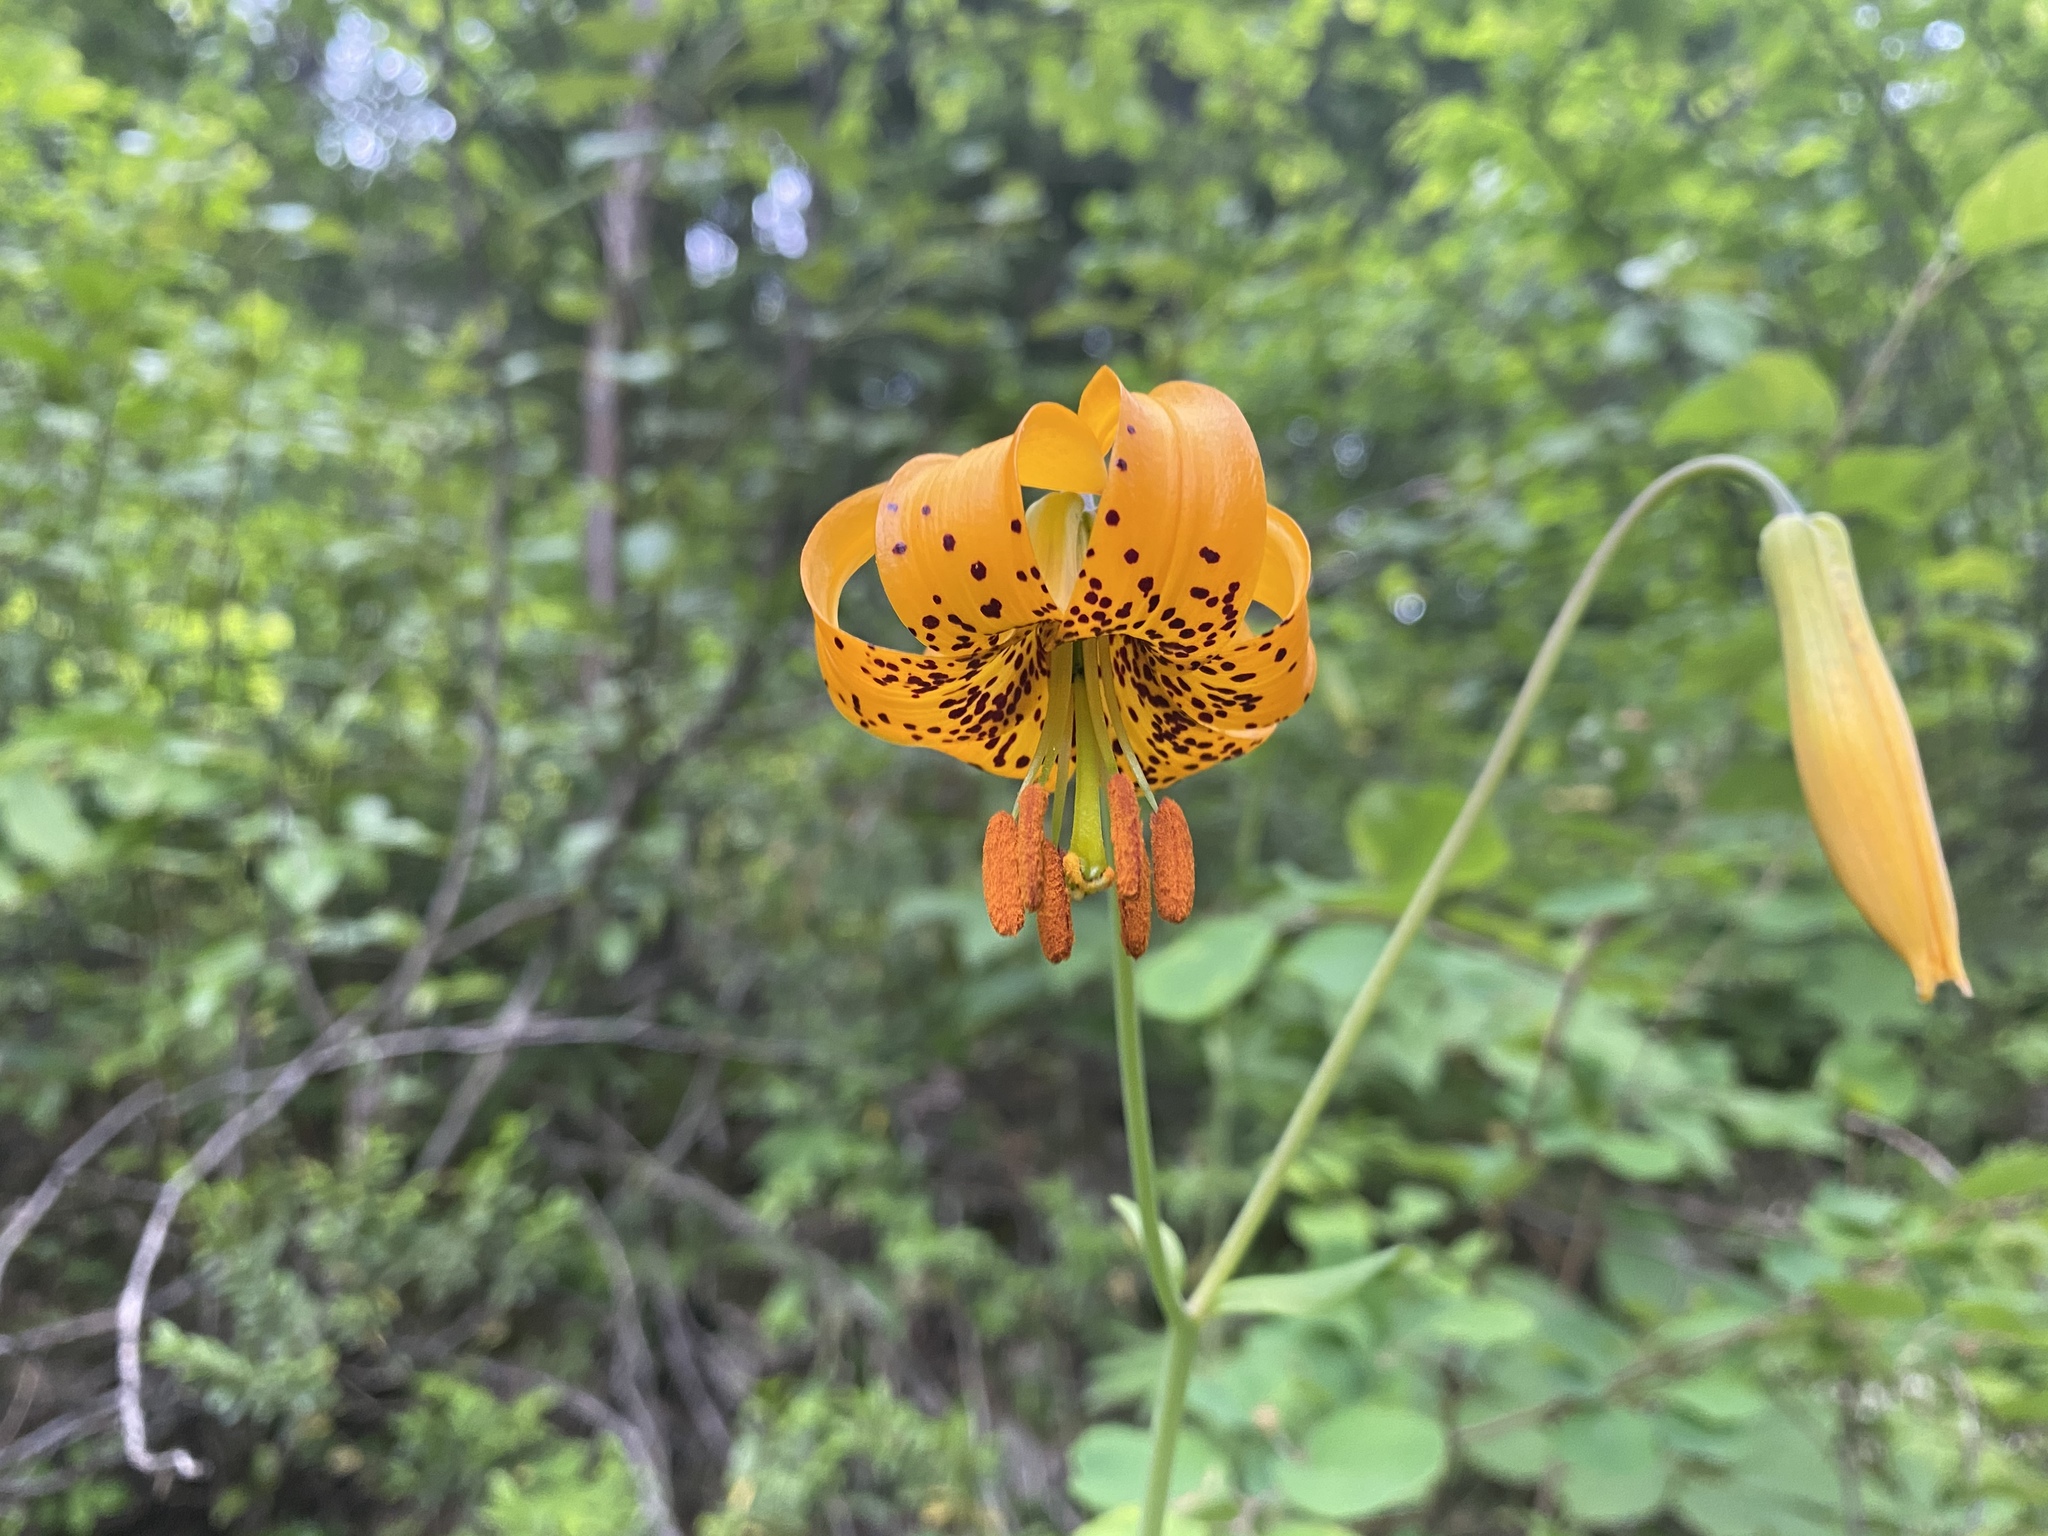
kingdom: Plantae
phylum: Tracheophyta
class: Liliopsida
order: Liliales
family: Liliaceae
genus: Lilium
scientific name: Lilium columbianum
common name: Columbia lily
